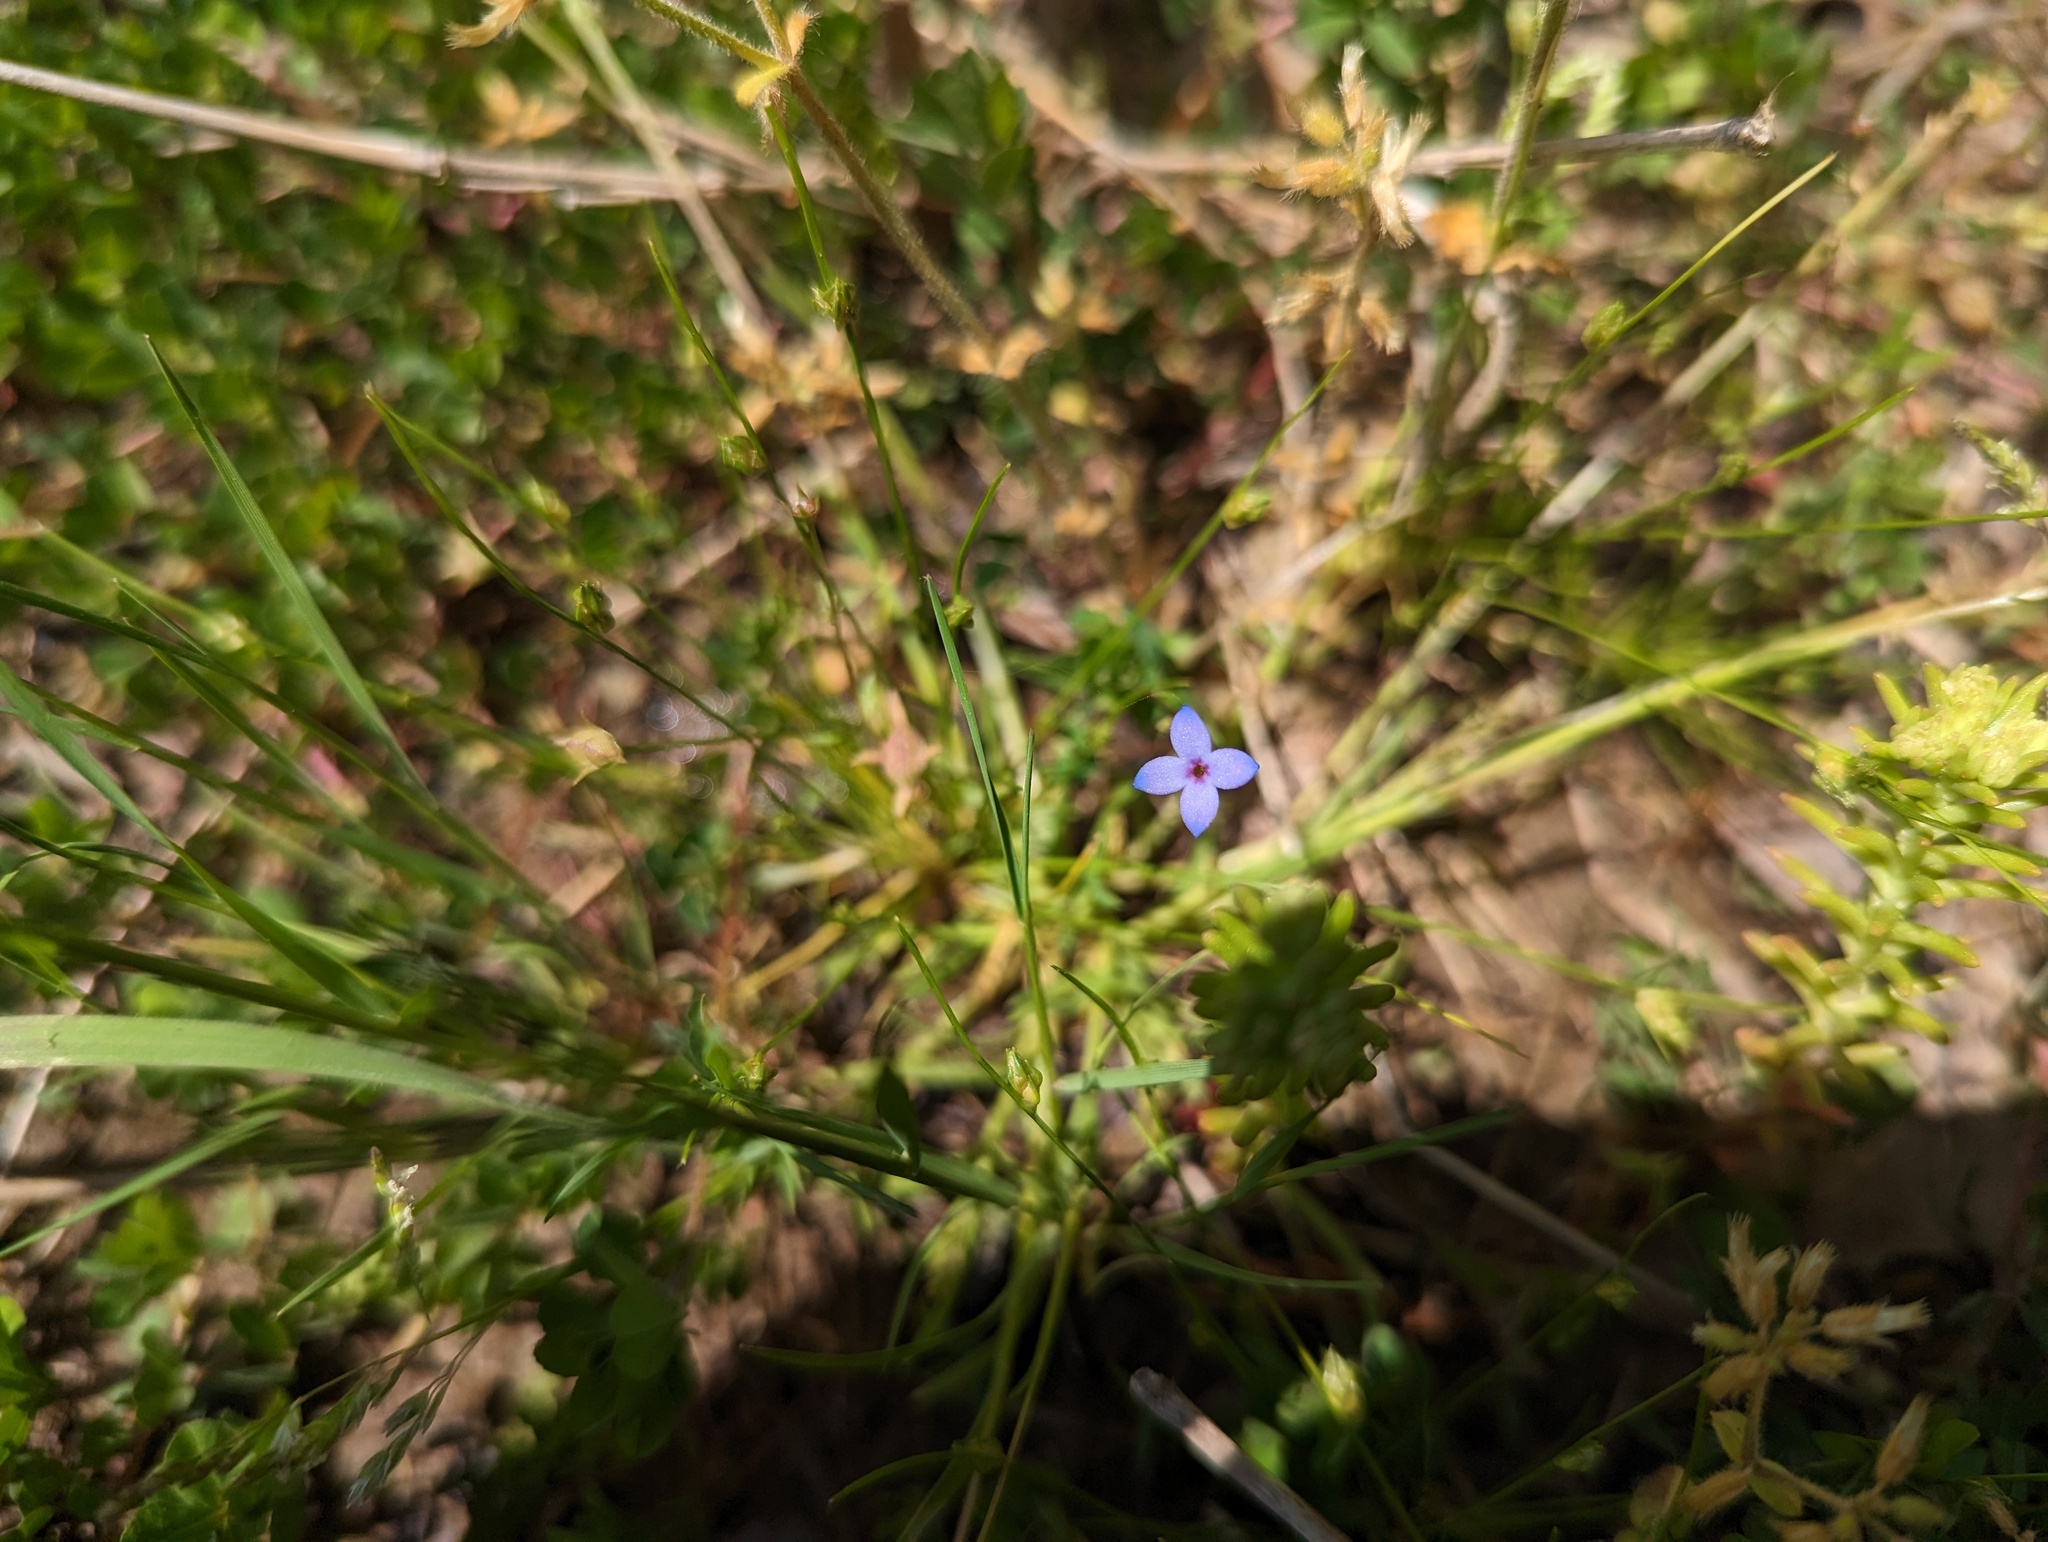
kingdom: Plantae
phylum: Tracheophyta
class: Magnoliopsida
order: Gentianales
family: Rubiaceae
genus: Houstonia
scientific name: Houstonia pusilla
